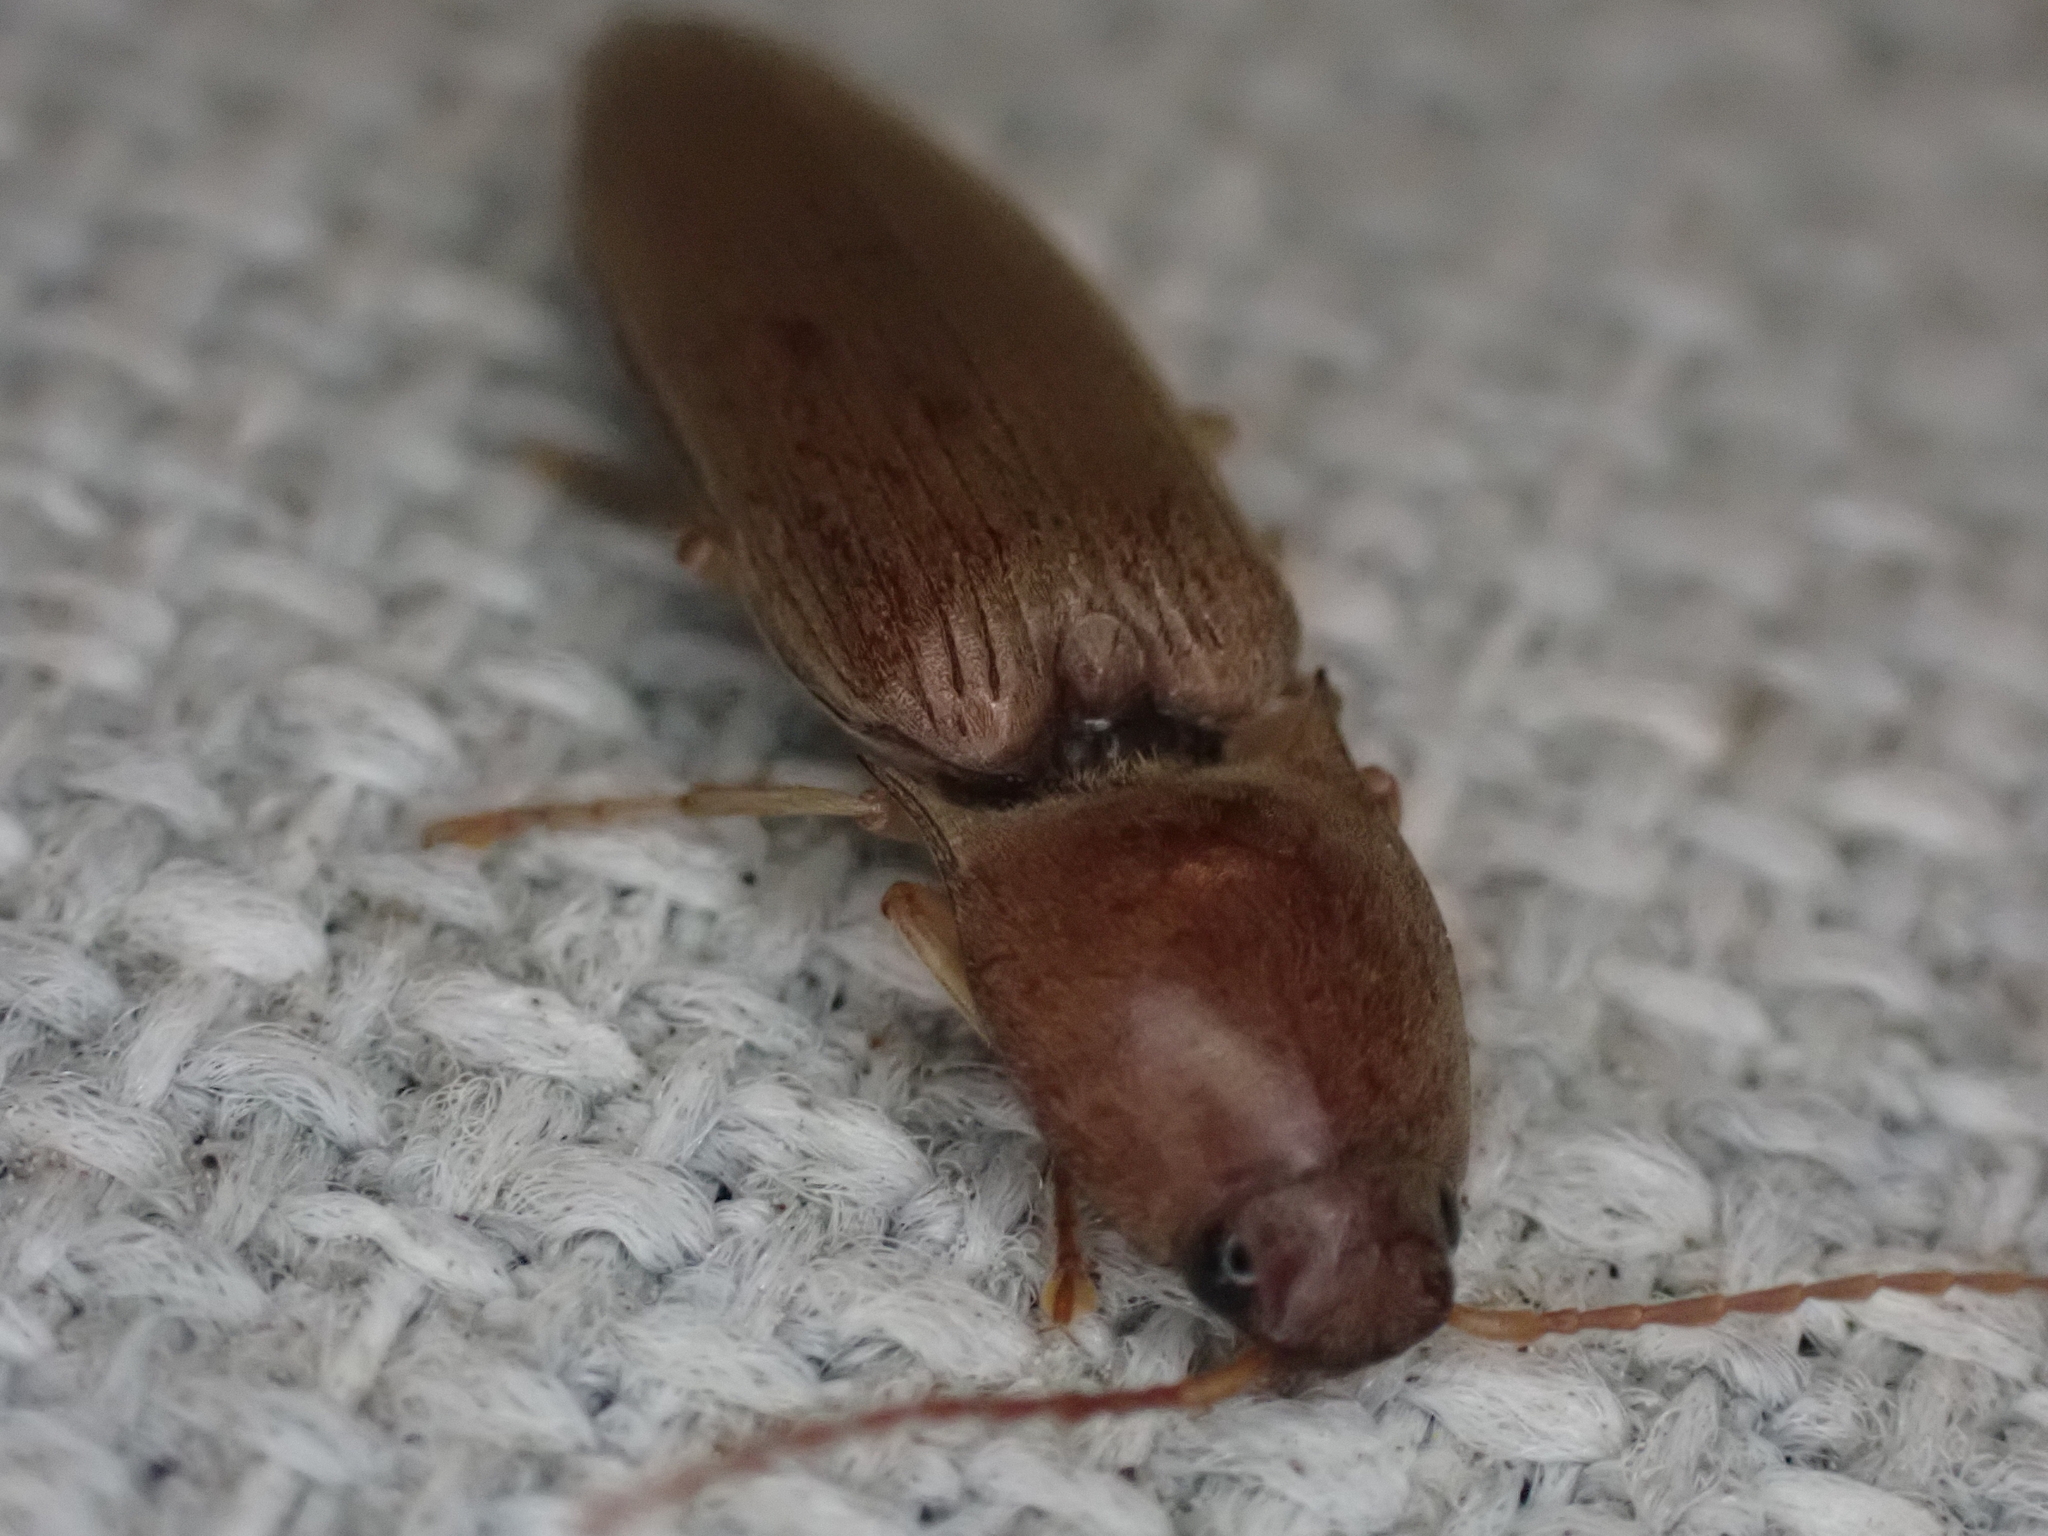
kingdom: Animalia
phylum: Arthropoda
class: Insecta
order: Coleoptera
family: Elateridae
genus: Monocrepidius
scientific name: Monocrepidius lividus
